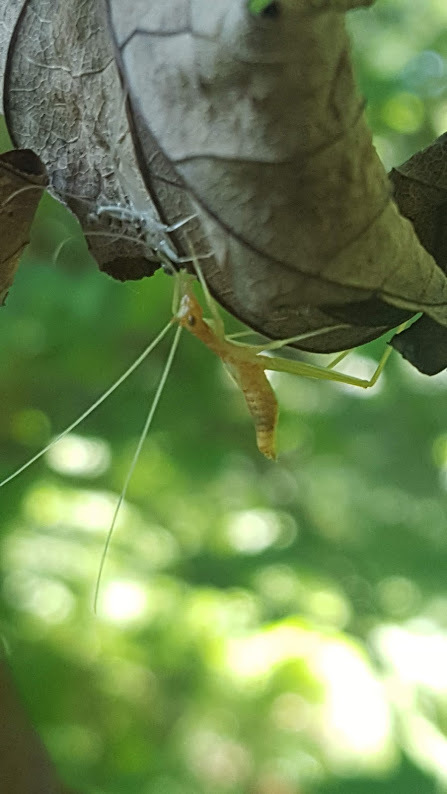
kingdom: Animalia
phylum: Arthropoda
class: Insecta
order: Orthoptera
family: Gryllidae
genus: Neoxabea
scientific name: Neoxabea bipunctata
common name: Two-spotted tree cricket
